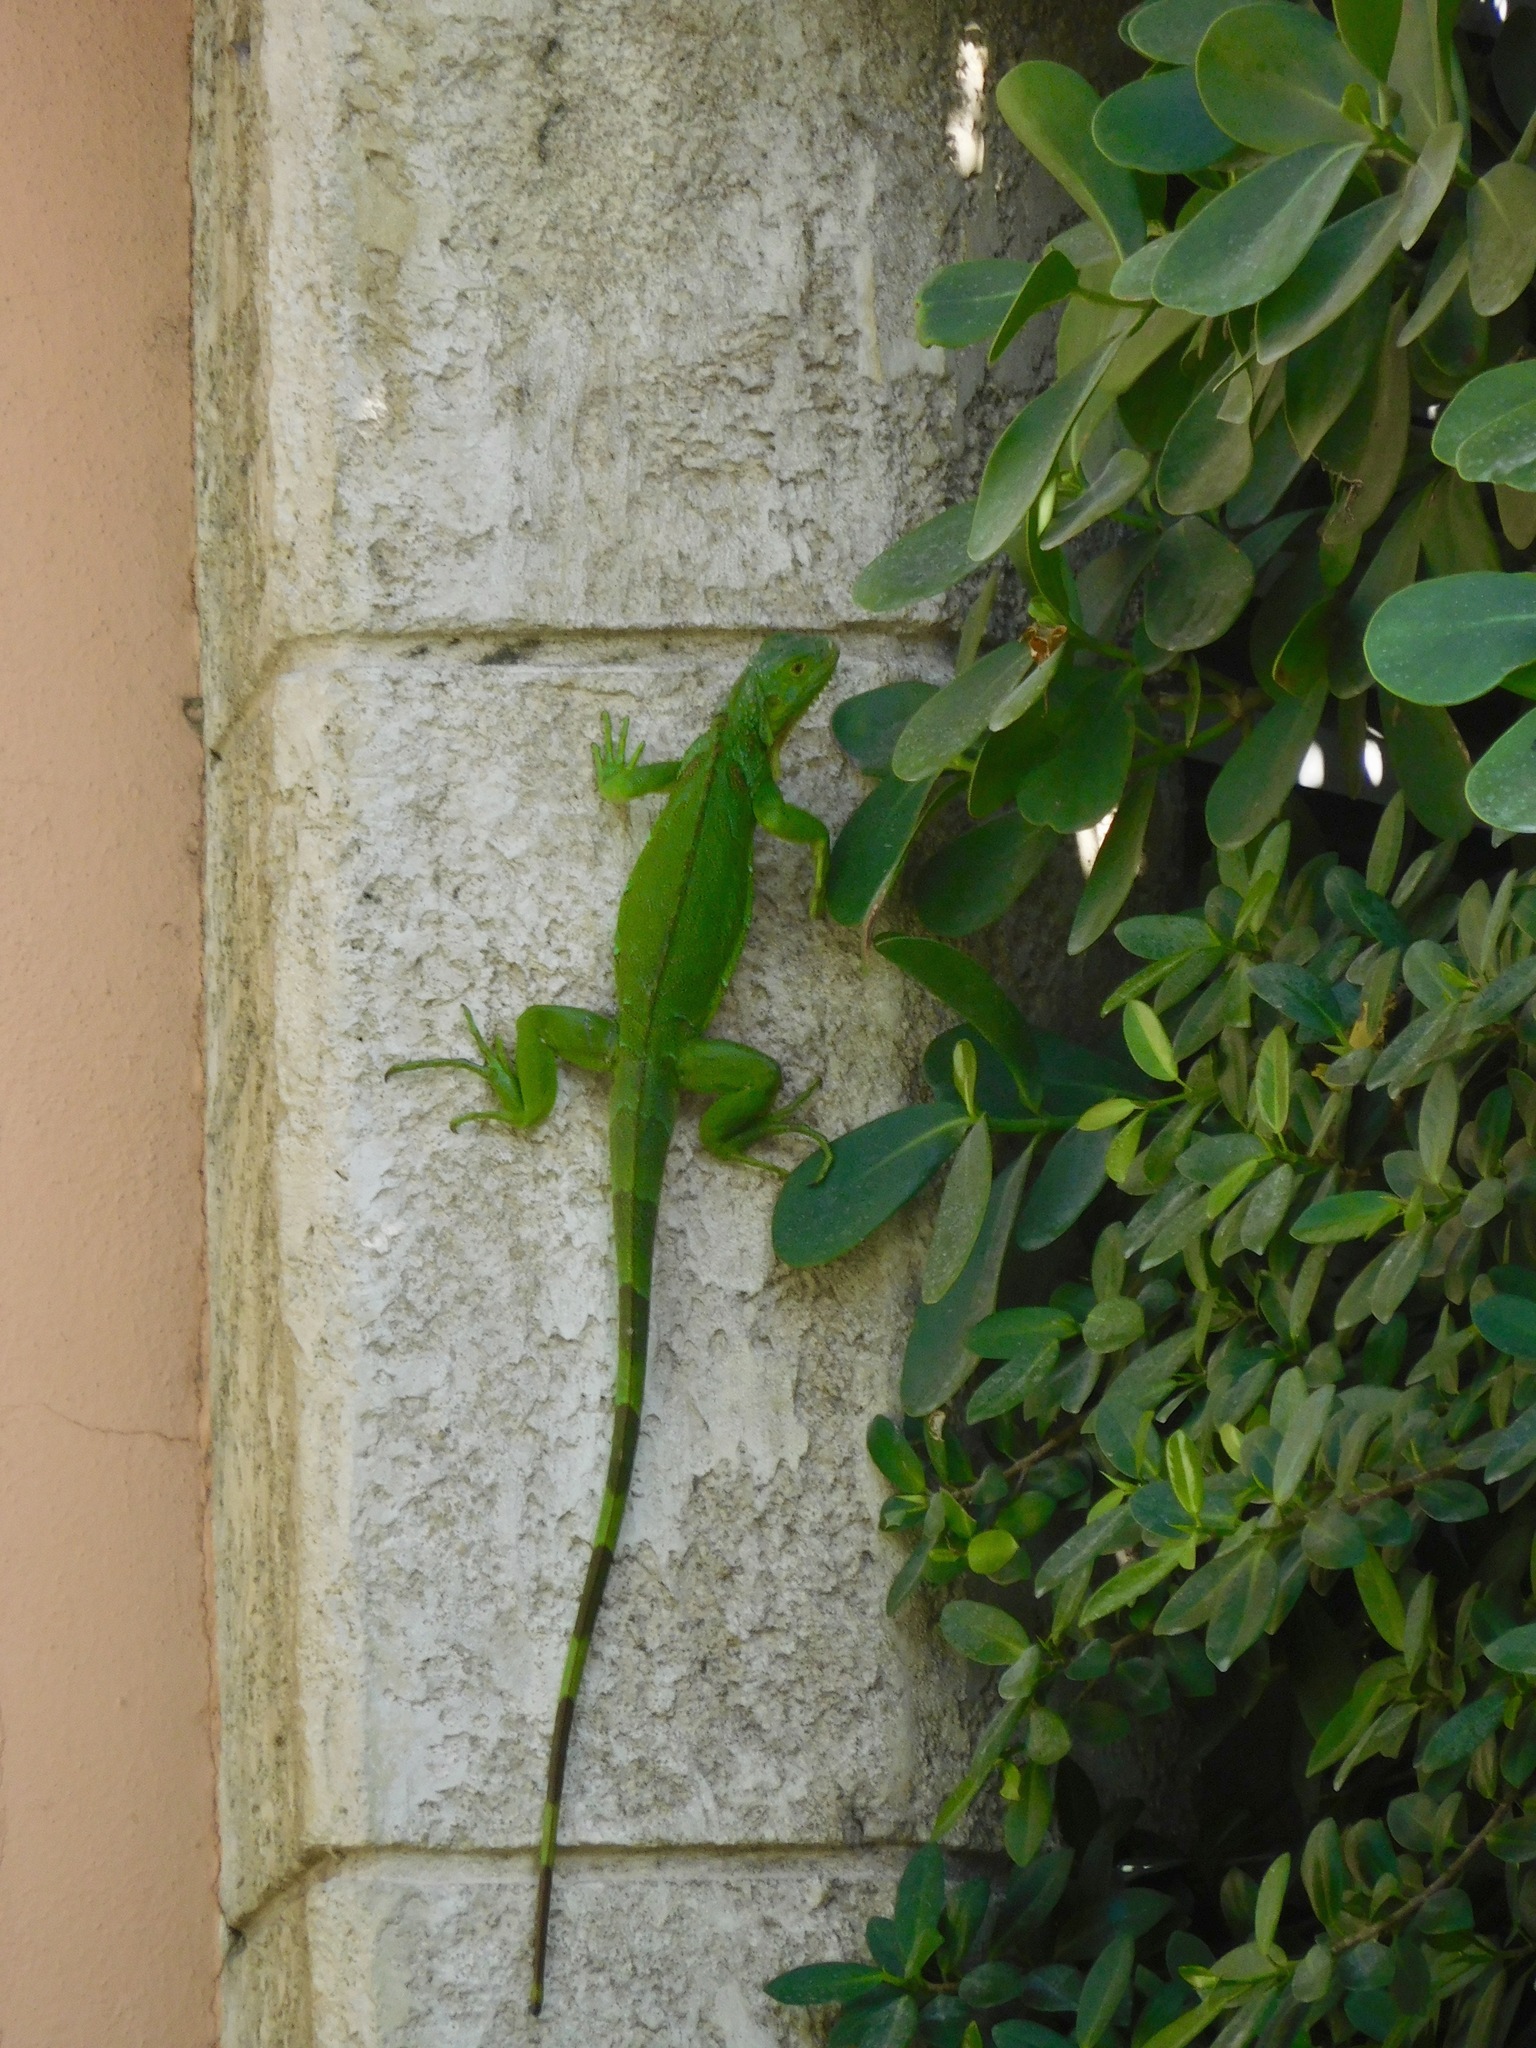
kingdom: Animalia
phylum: Chordata
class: Squamata
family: Iguanidae
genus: Iguana
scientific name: Iguana iguana
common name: Green iguana
